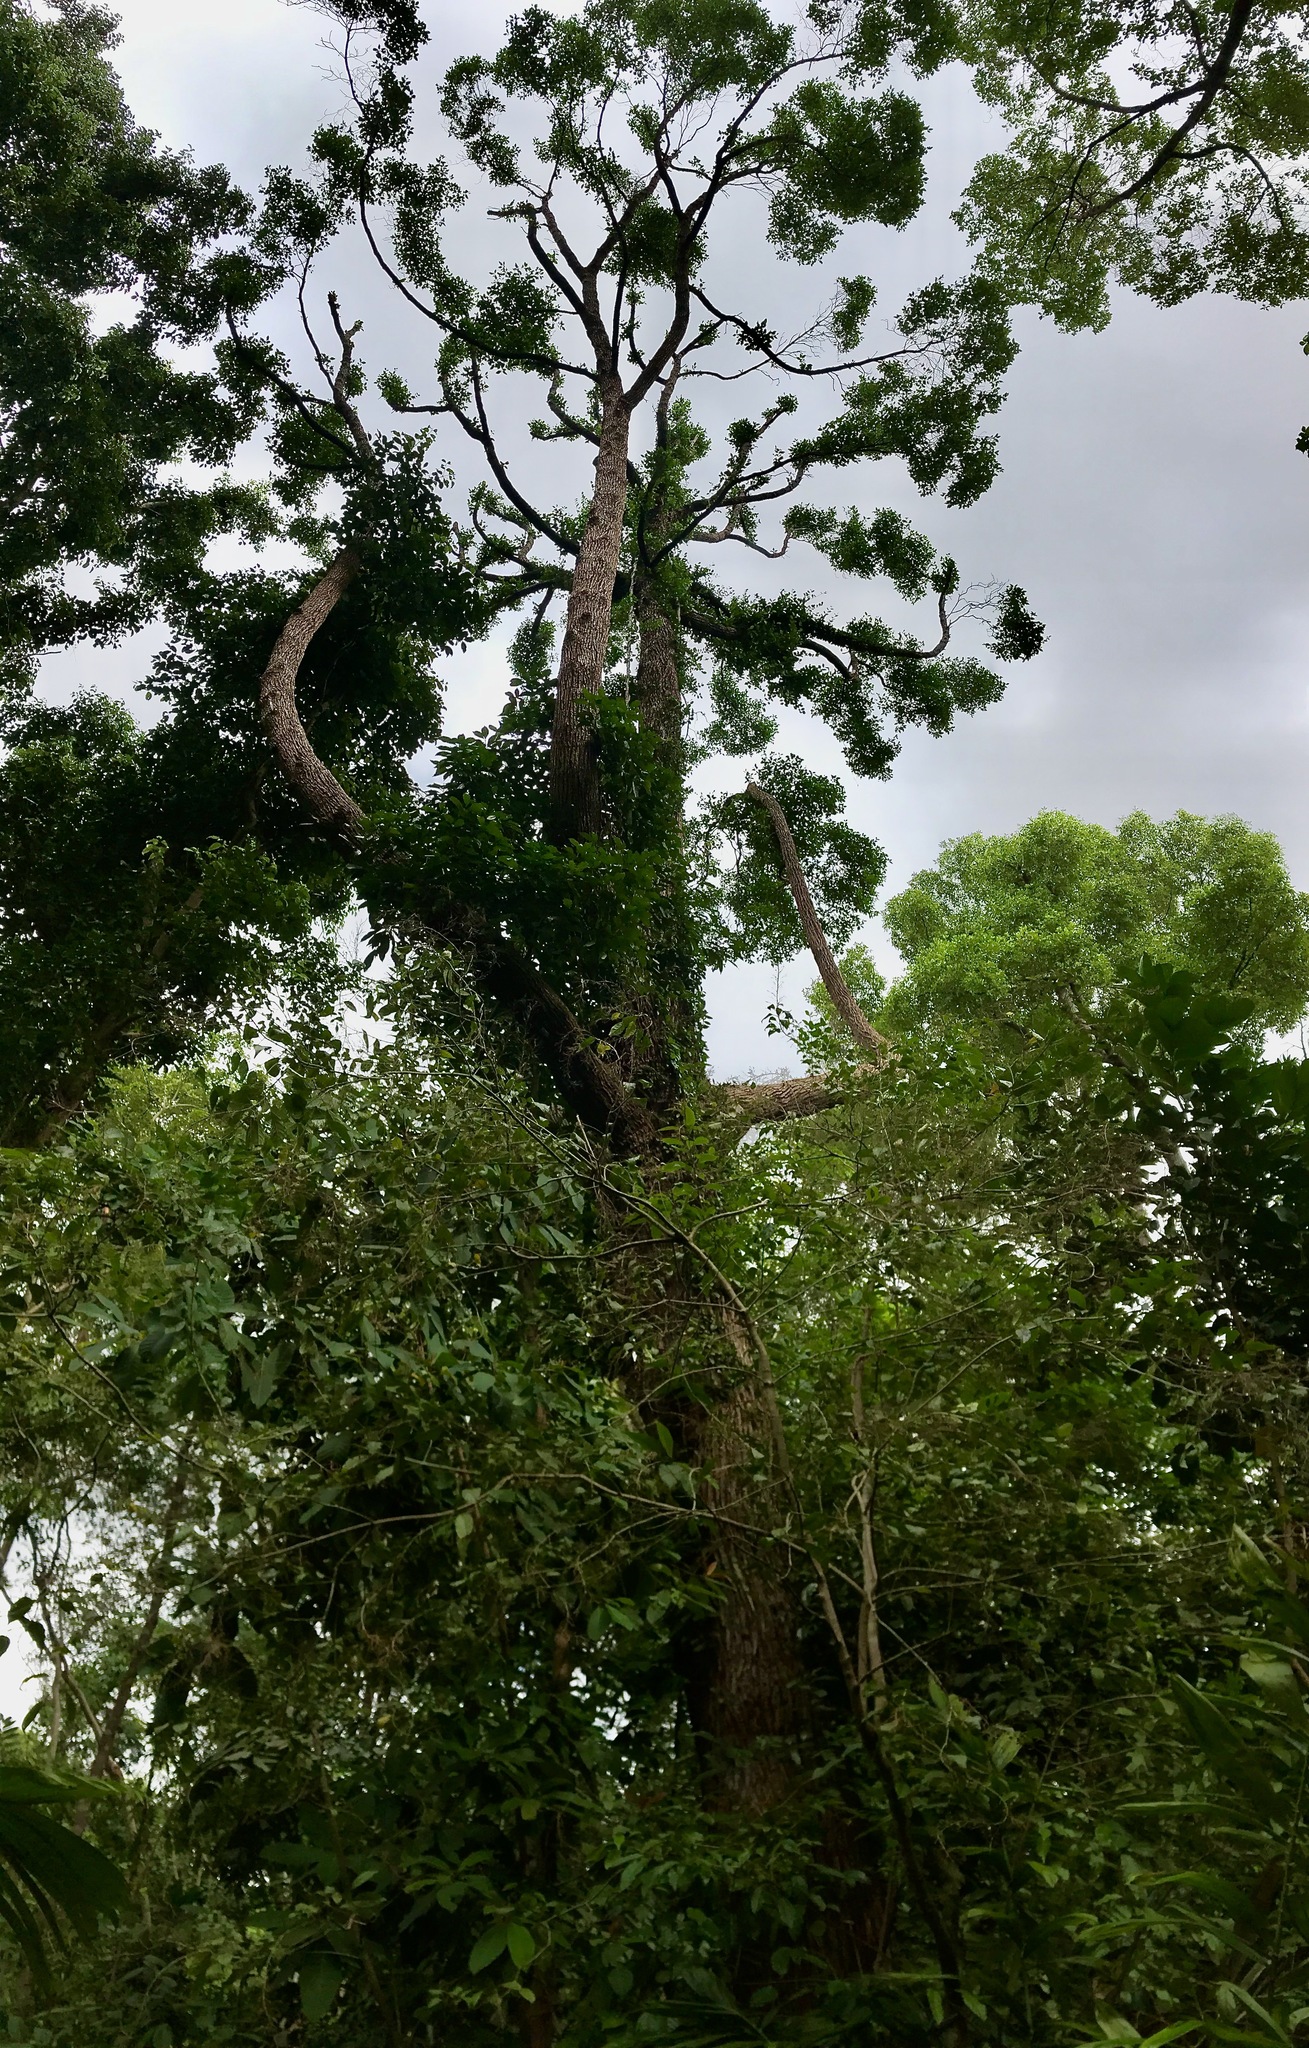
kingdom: Plantae
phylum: Tracheophyta
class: Magnoliopsida
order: Gentianales
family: Gentianaceae
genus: Cyrtophyllum
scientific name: Cyrtophyllum fragrans
